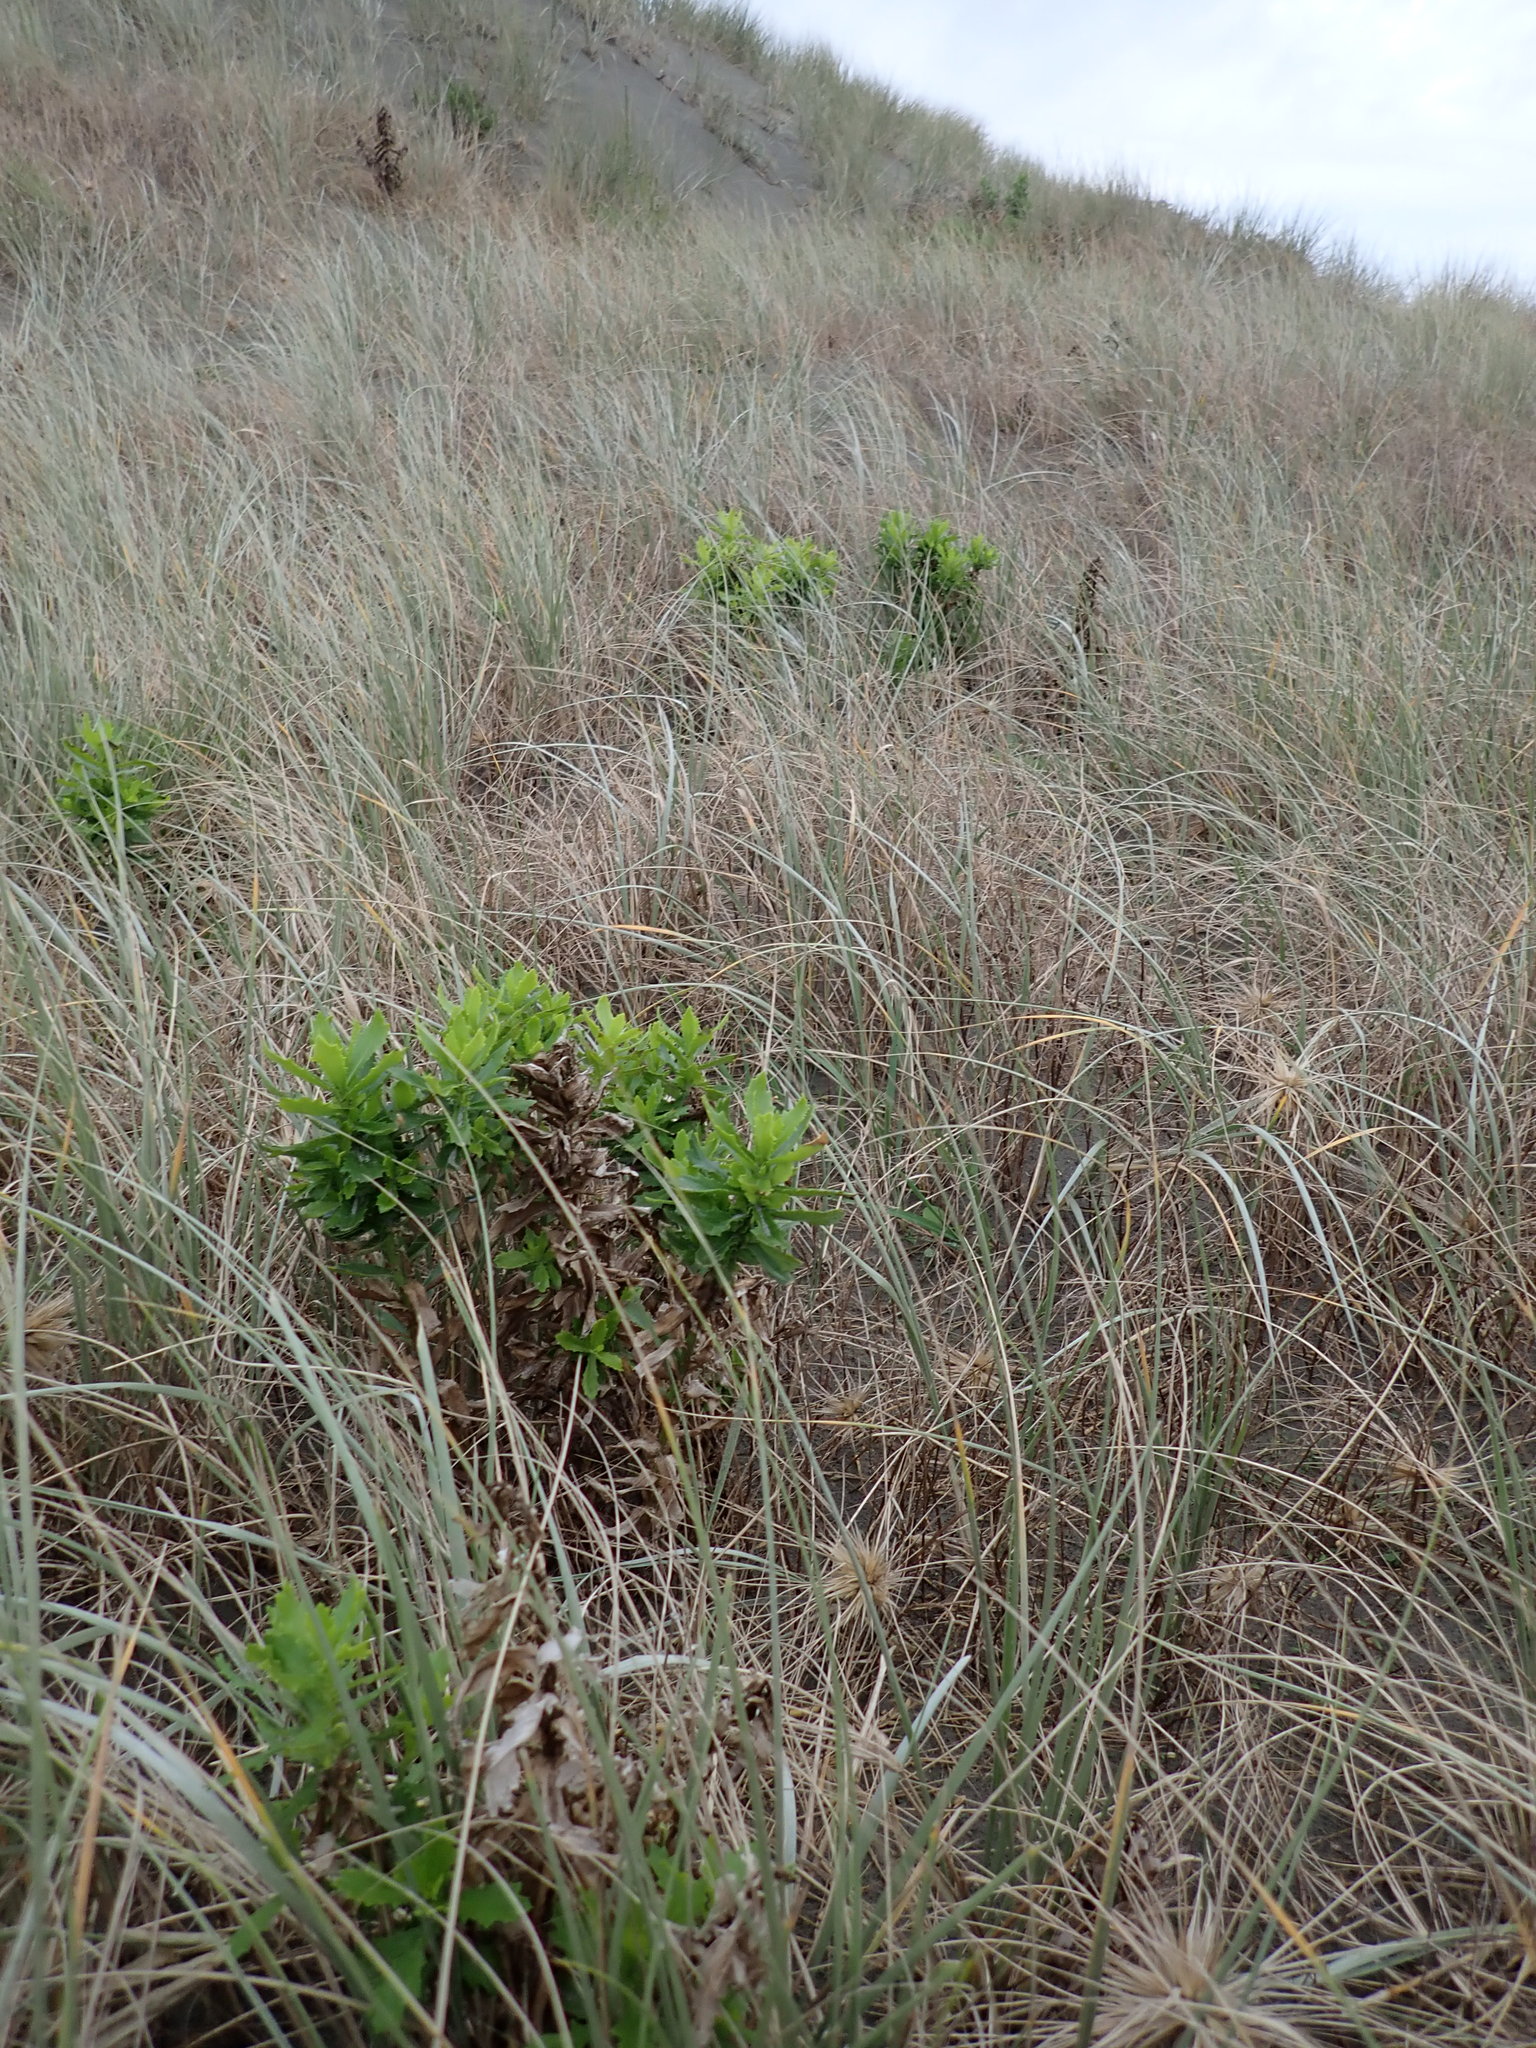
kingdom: Plantae
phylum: Tracheophyta
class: Magnoliopsida
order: Asterales
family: Asteraceae
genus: Senecio
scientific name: Senecio glastifolius
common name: Woad-leaved ragwort
